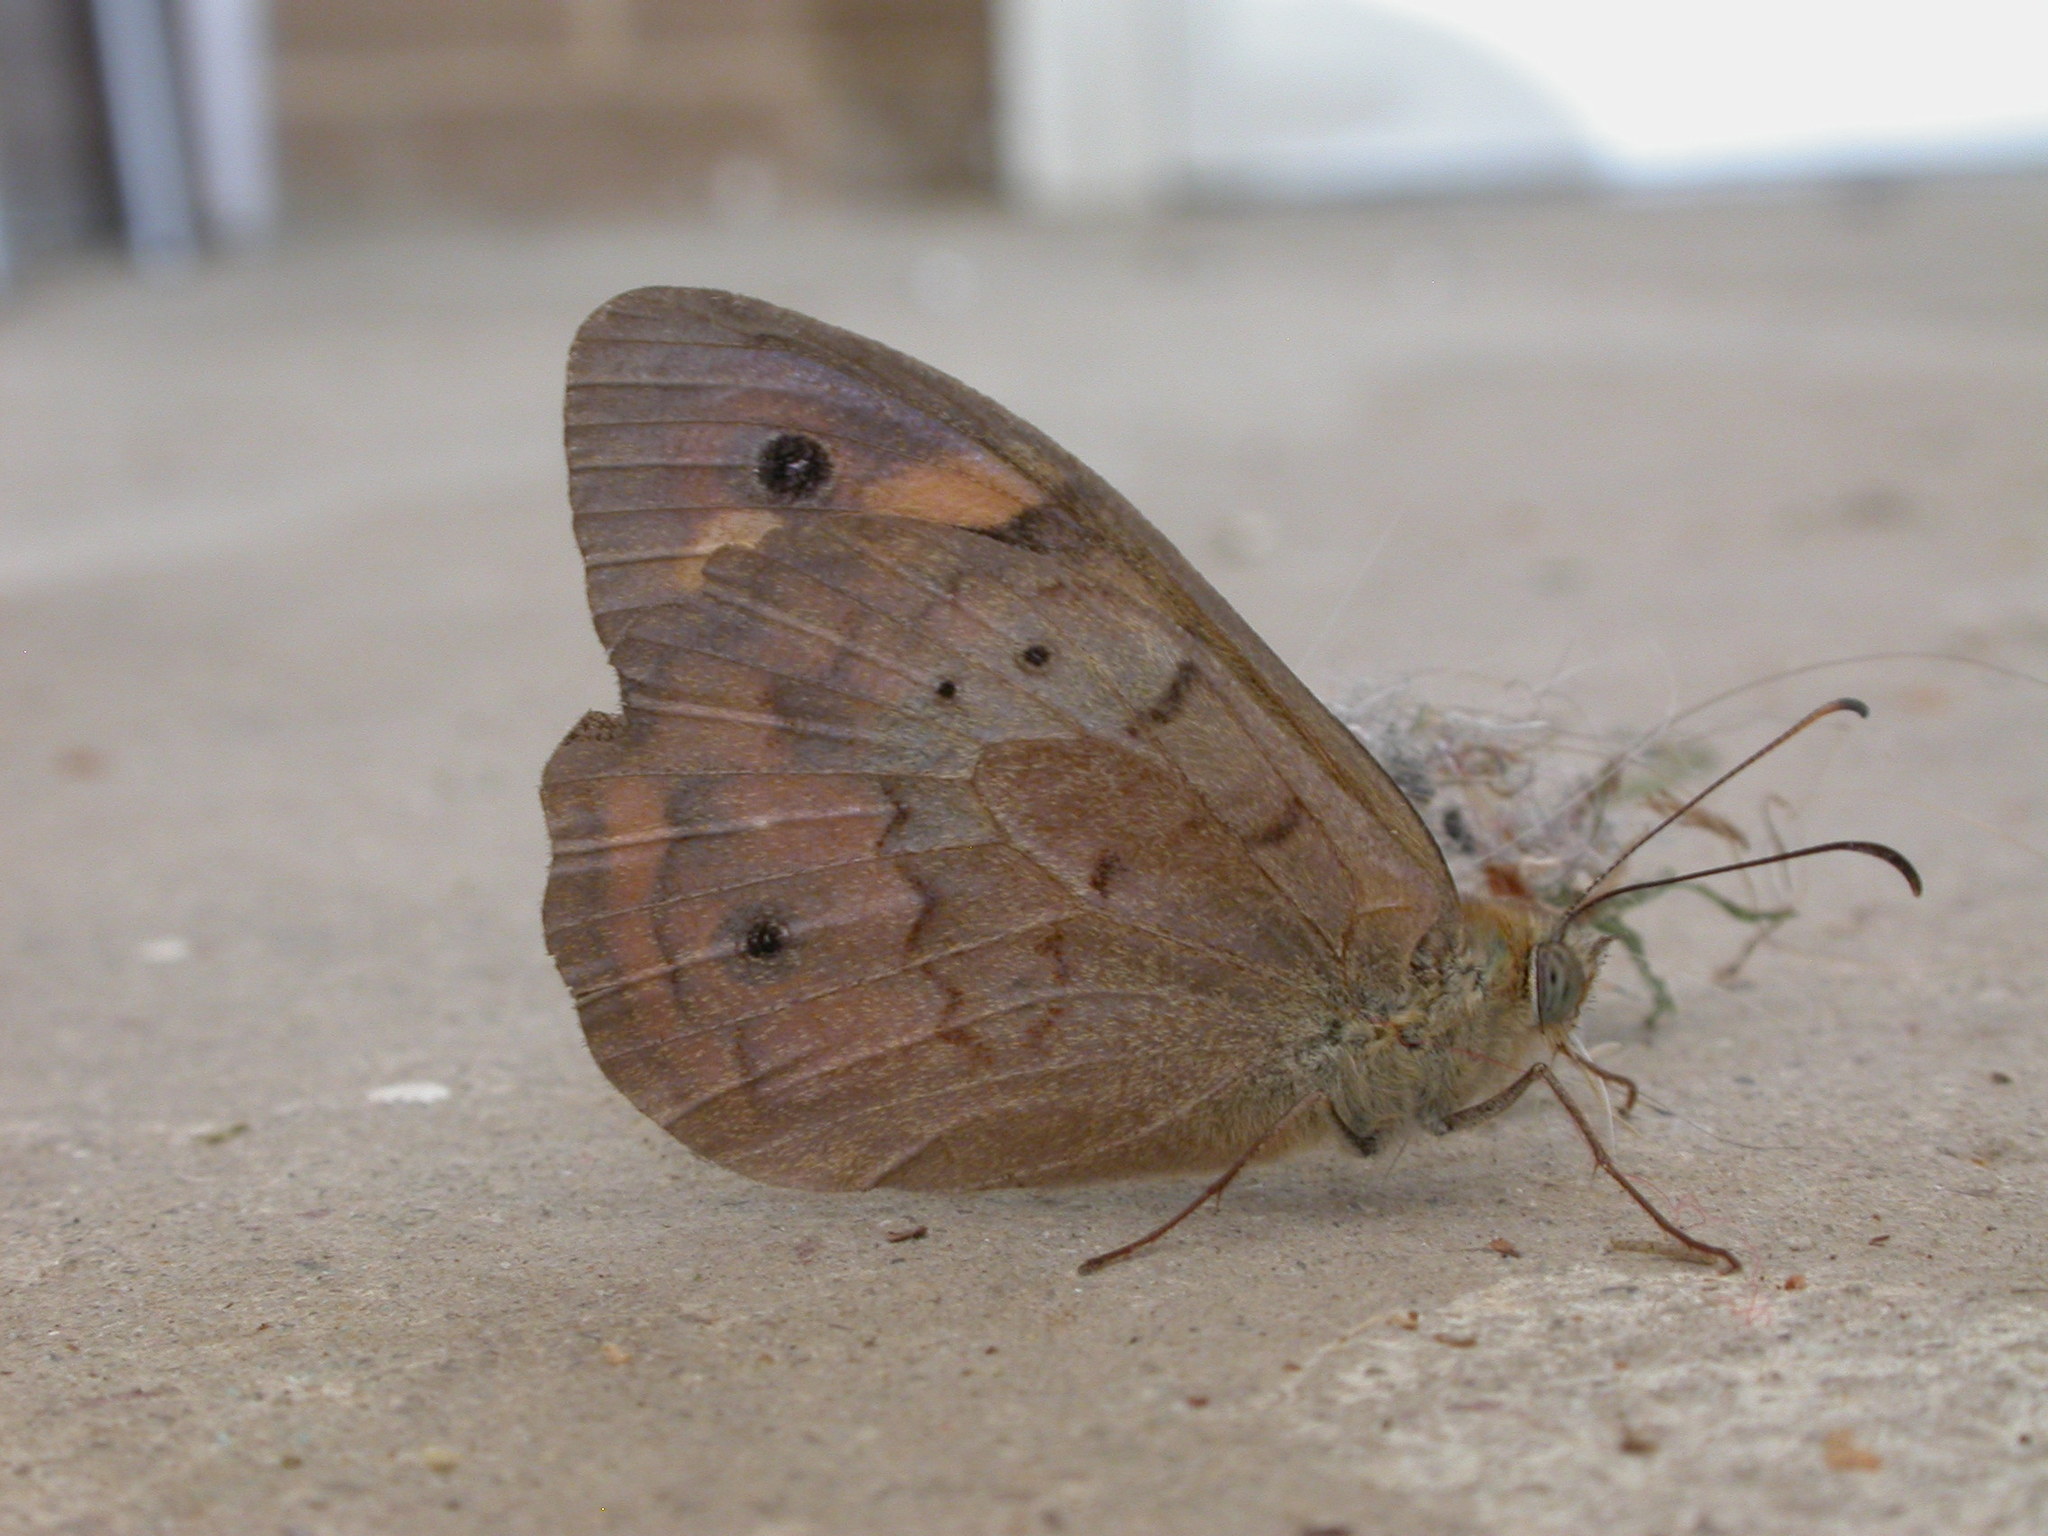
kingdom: Animalia
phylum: Arthropoda
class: Insecta
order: Lepidoptera
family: Nymphalidae
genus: Heteronympha
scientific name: Heteronympha merope
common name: Common brown
